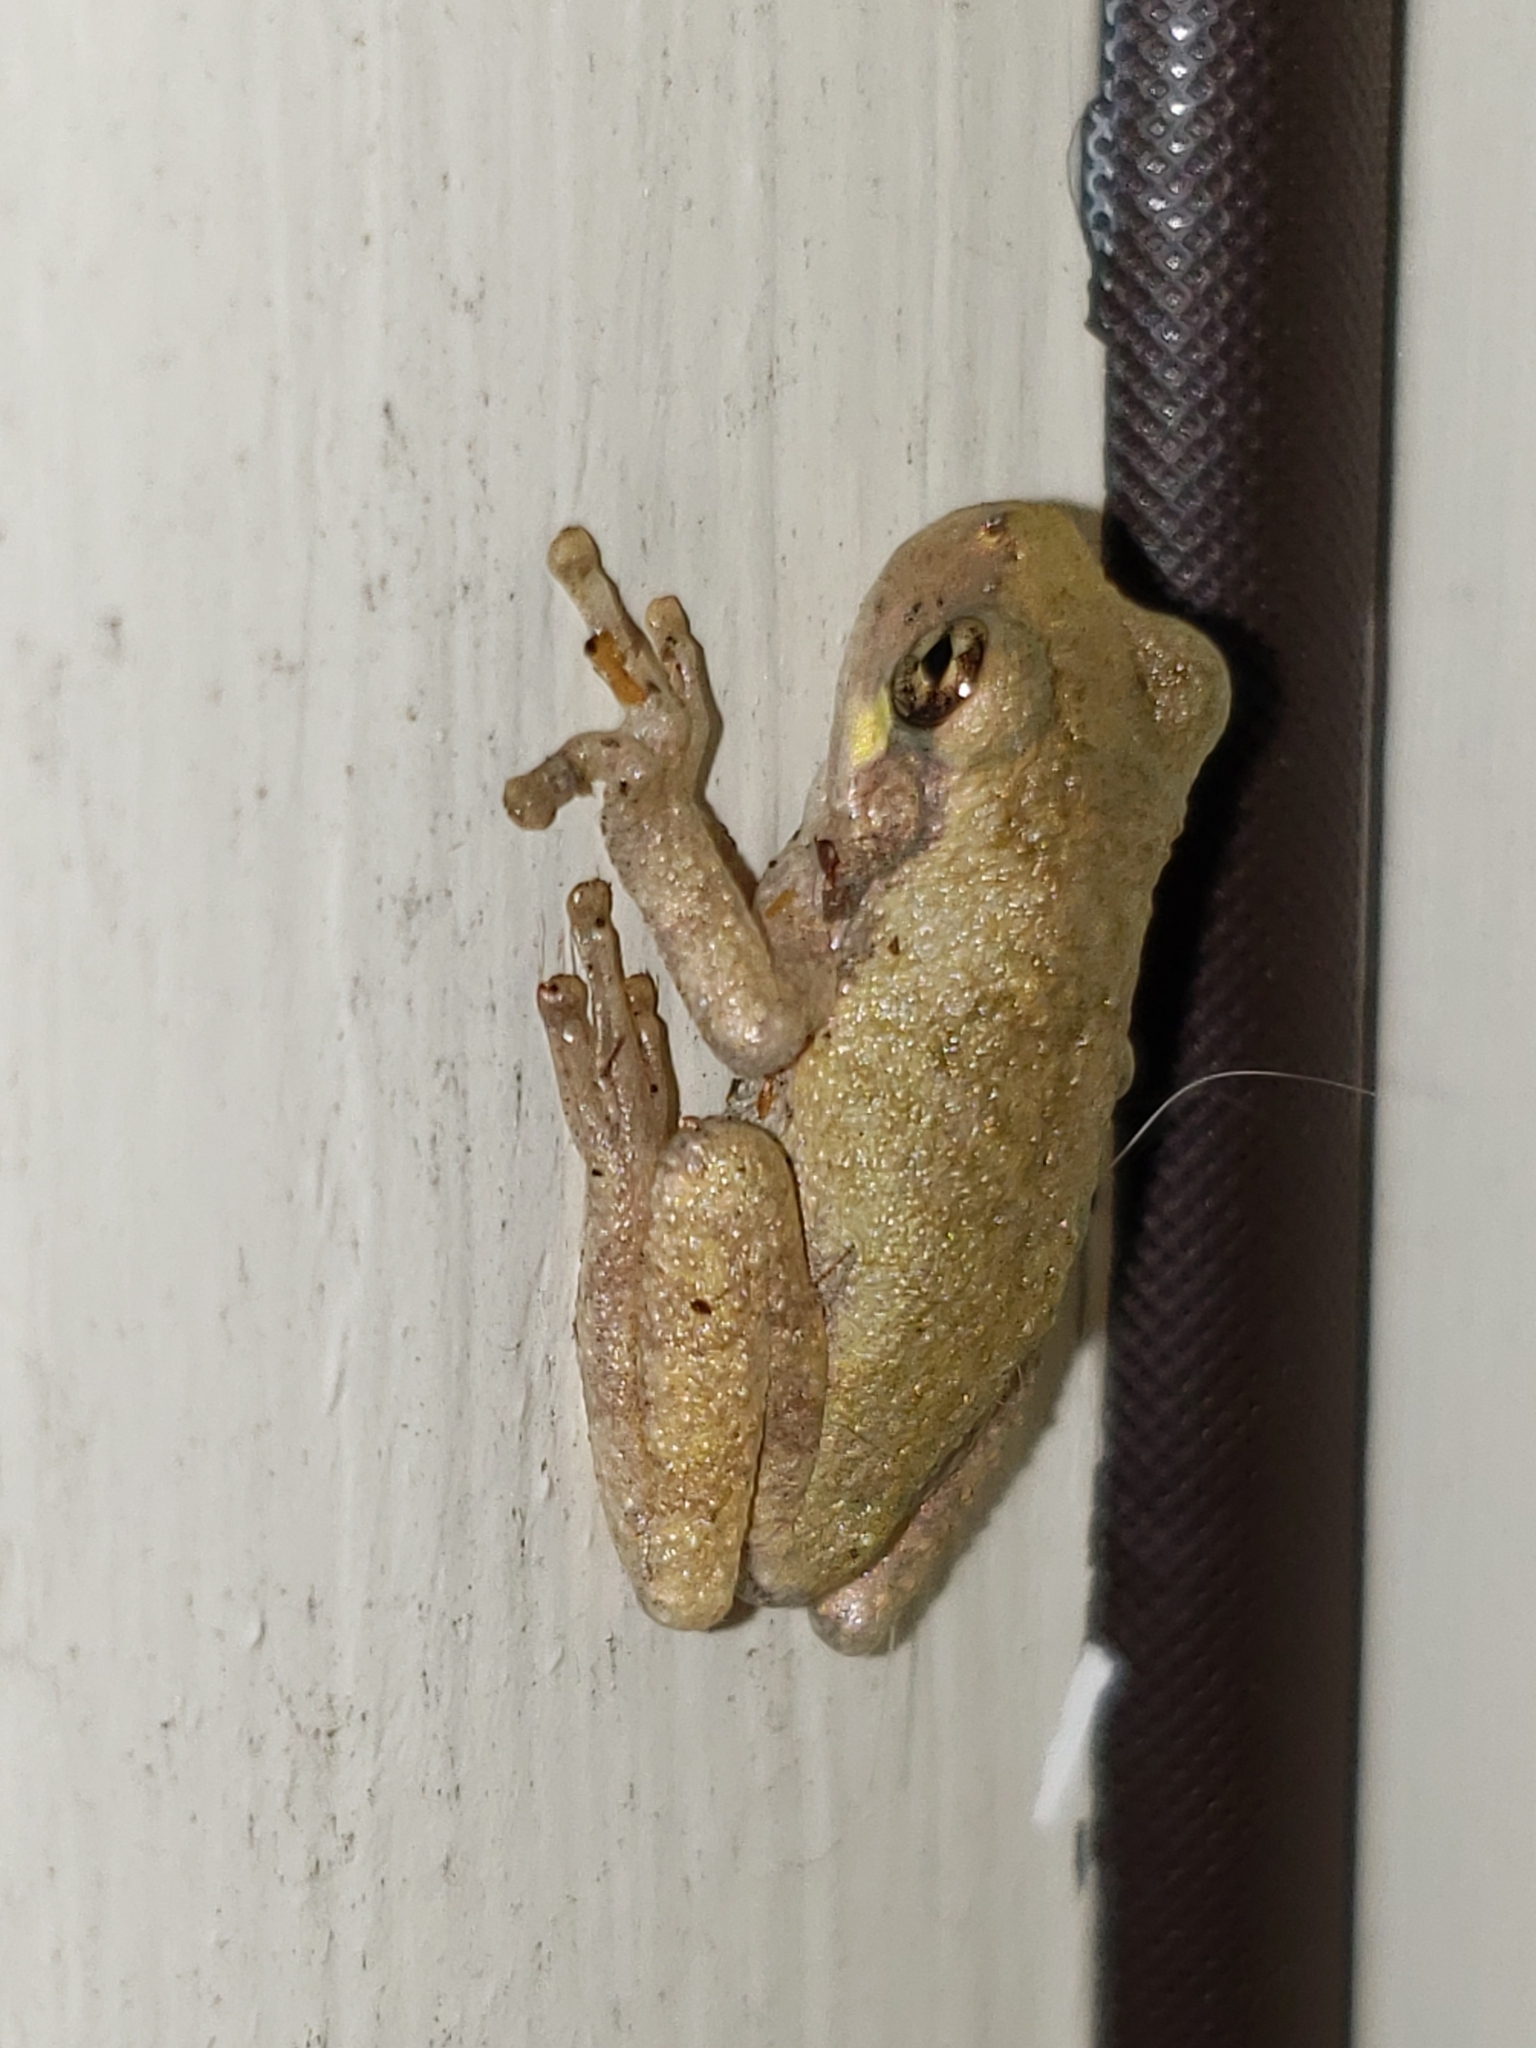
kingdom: Animalia
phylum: Chordata
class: Amphibia
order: Anura
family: Hylidae
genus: Hyla
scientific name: Hyla
